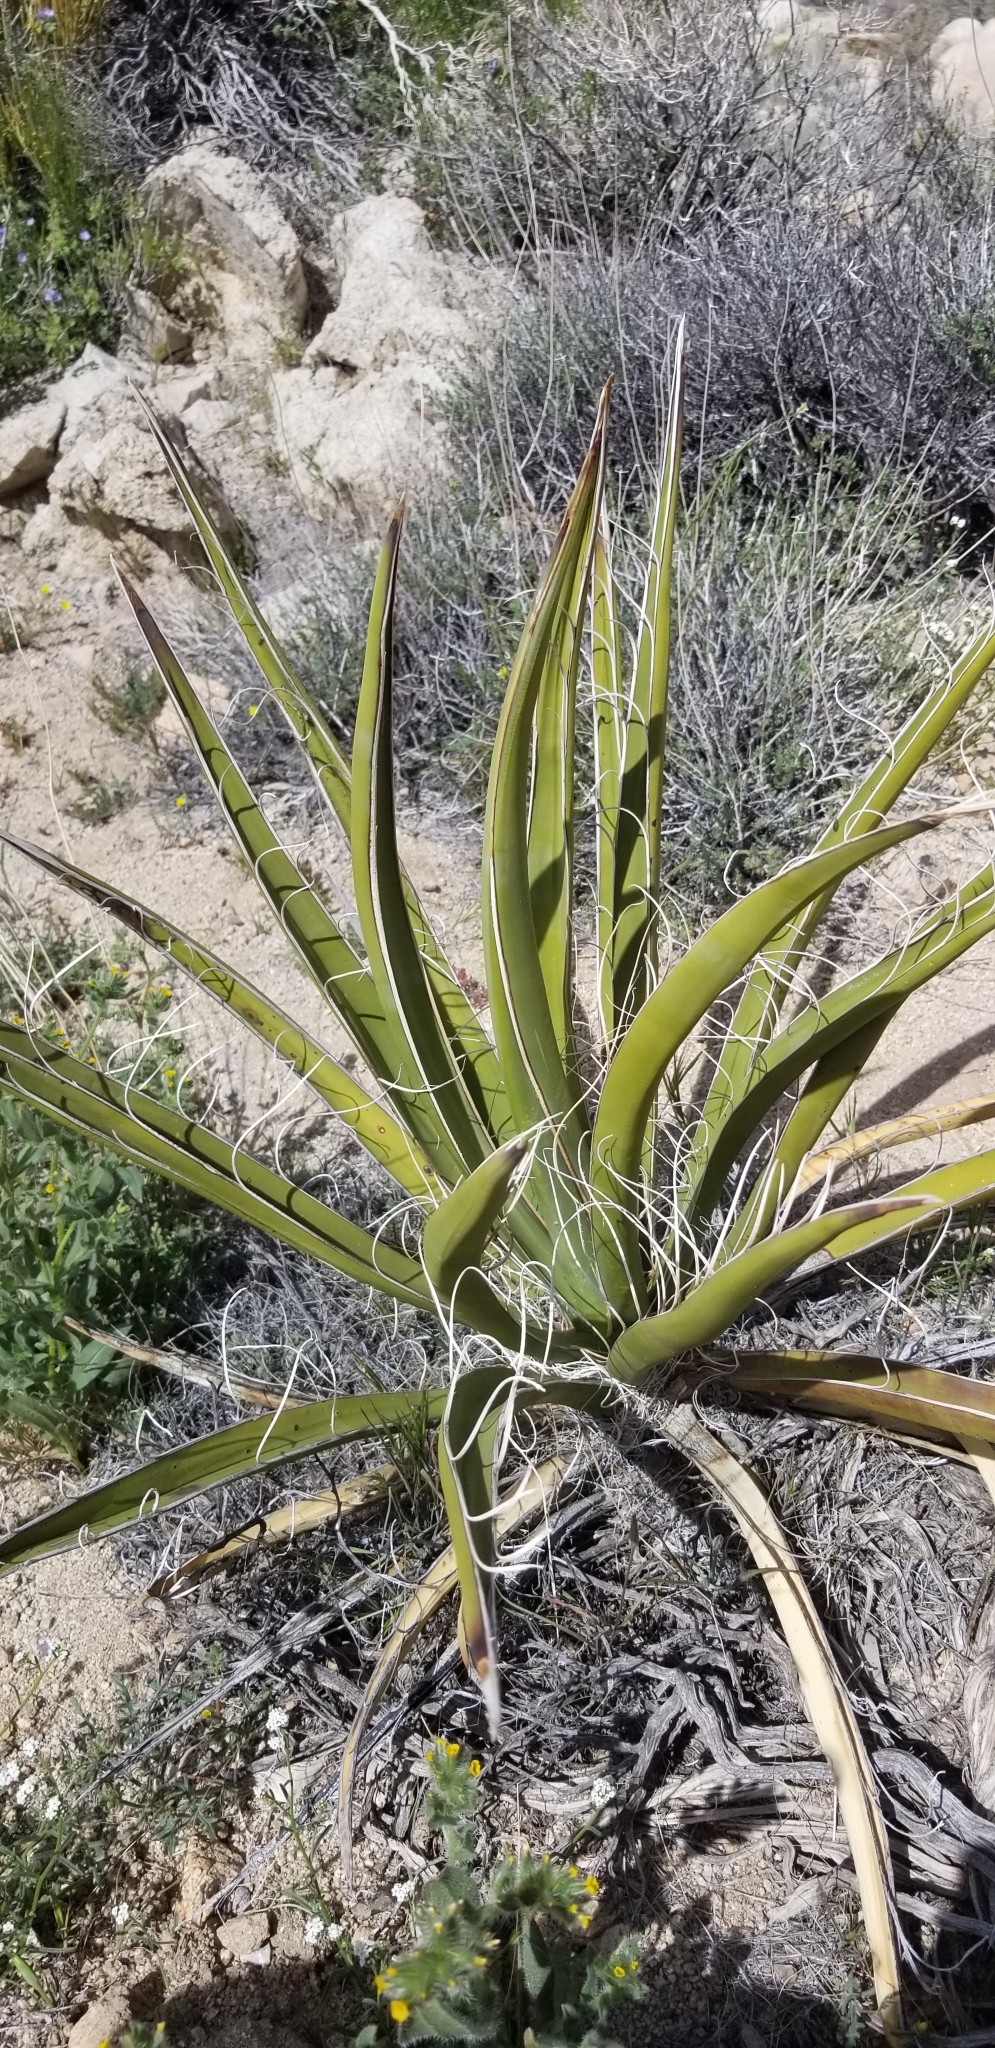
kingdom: Plantae
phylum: Tracheophyta
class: Liliopsida
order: Asparagales
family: Asparagaceae
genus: Yucca
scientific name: Yucca schidigera
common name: Mojave yucca
